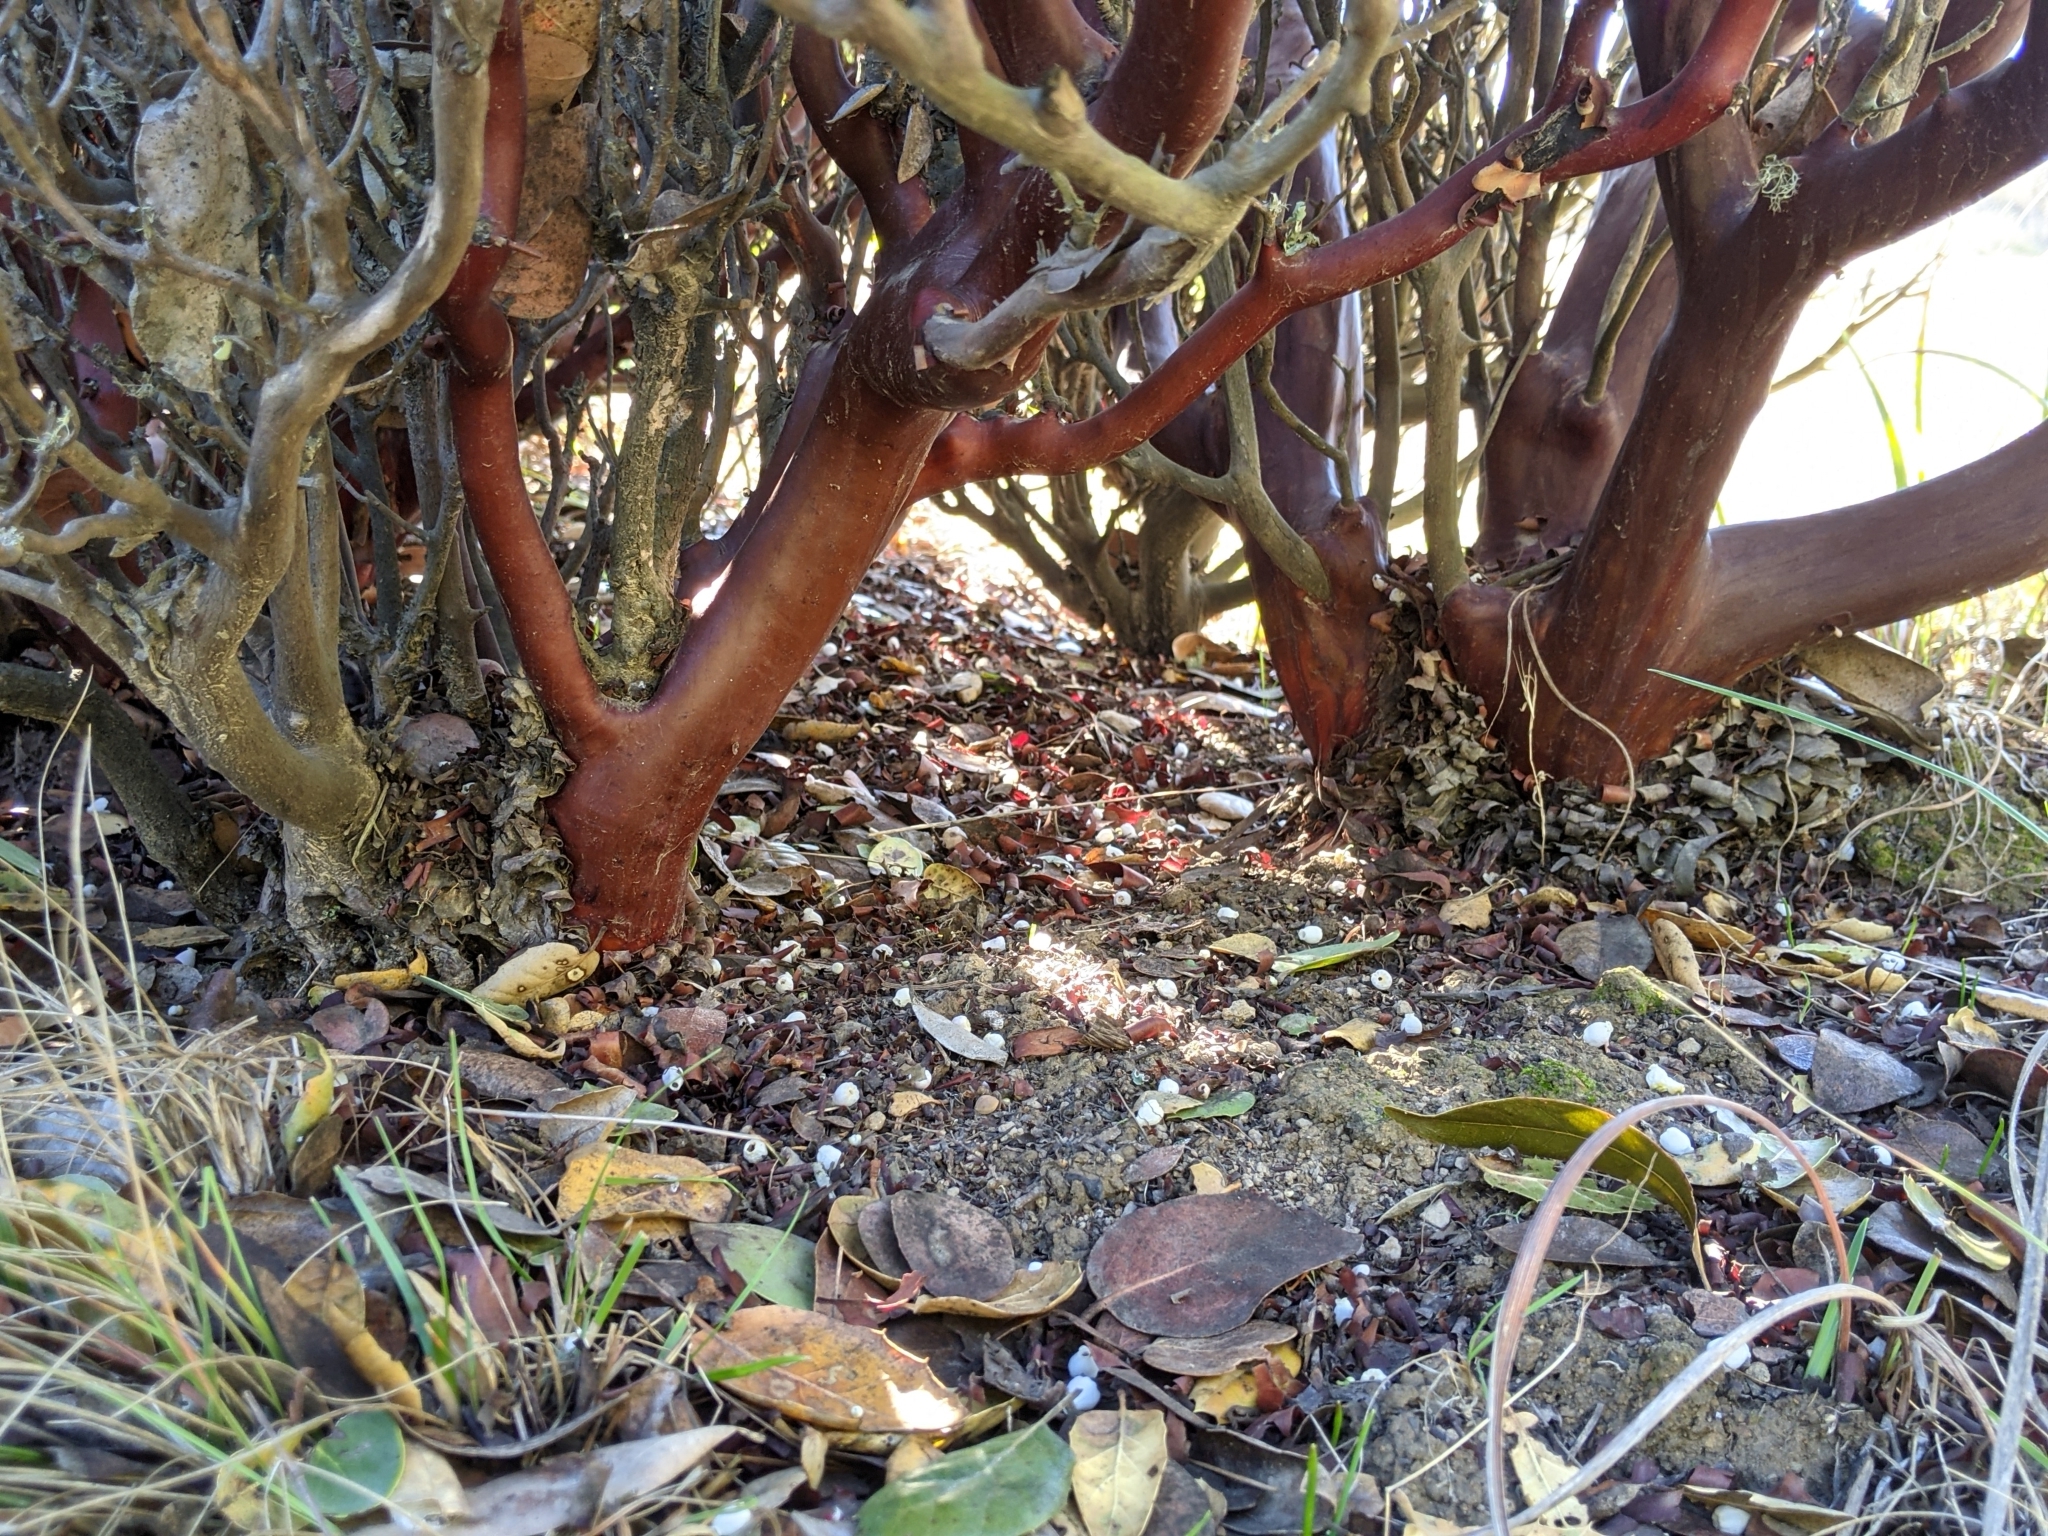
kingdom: Plantae
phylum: Tracheophyta
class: Magnoliopsida
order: Ericales
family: Ericaceae
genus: Arctostaphylos
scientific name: Arctostaphylos manzanita
